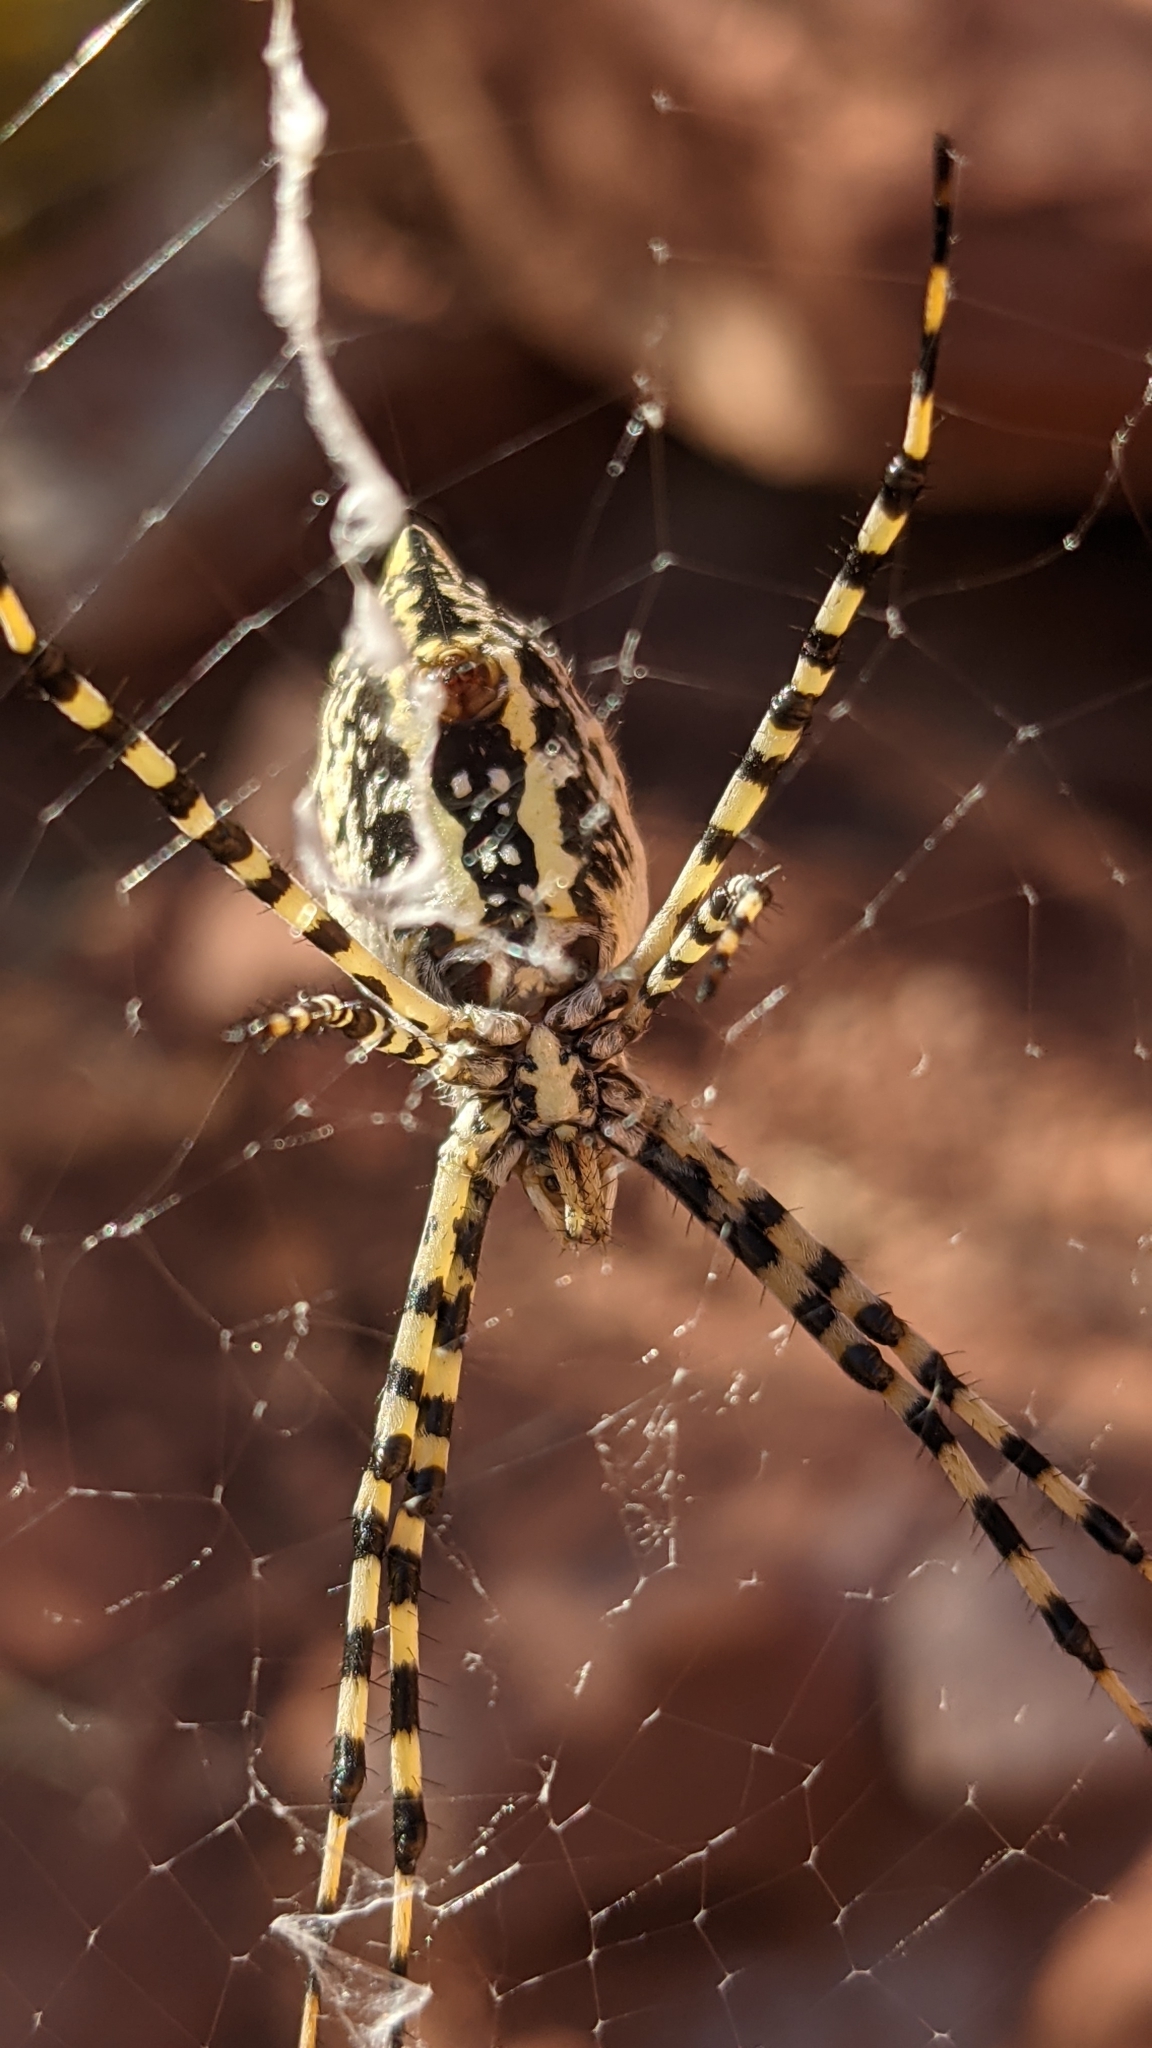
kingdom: Animalia
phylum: Arthropoda
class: Arachnida
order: Araneae
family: Araneidae
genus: Argiope
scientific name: Argiope trifasciata
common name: Banded garden spider
